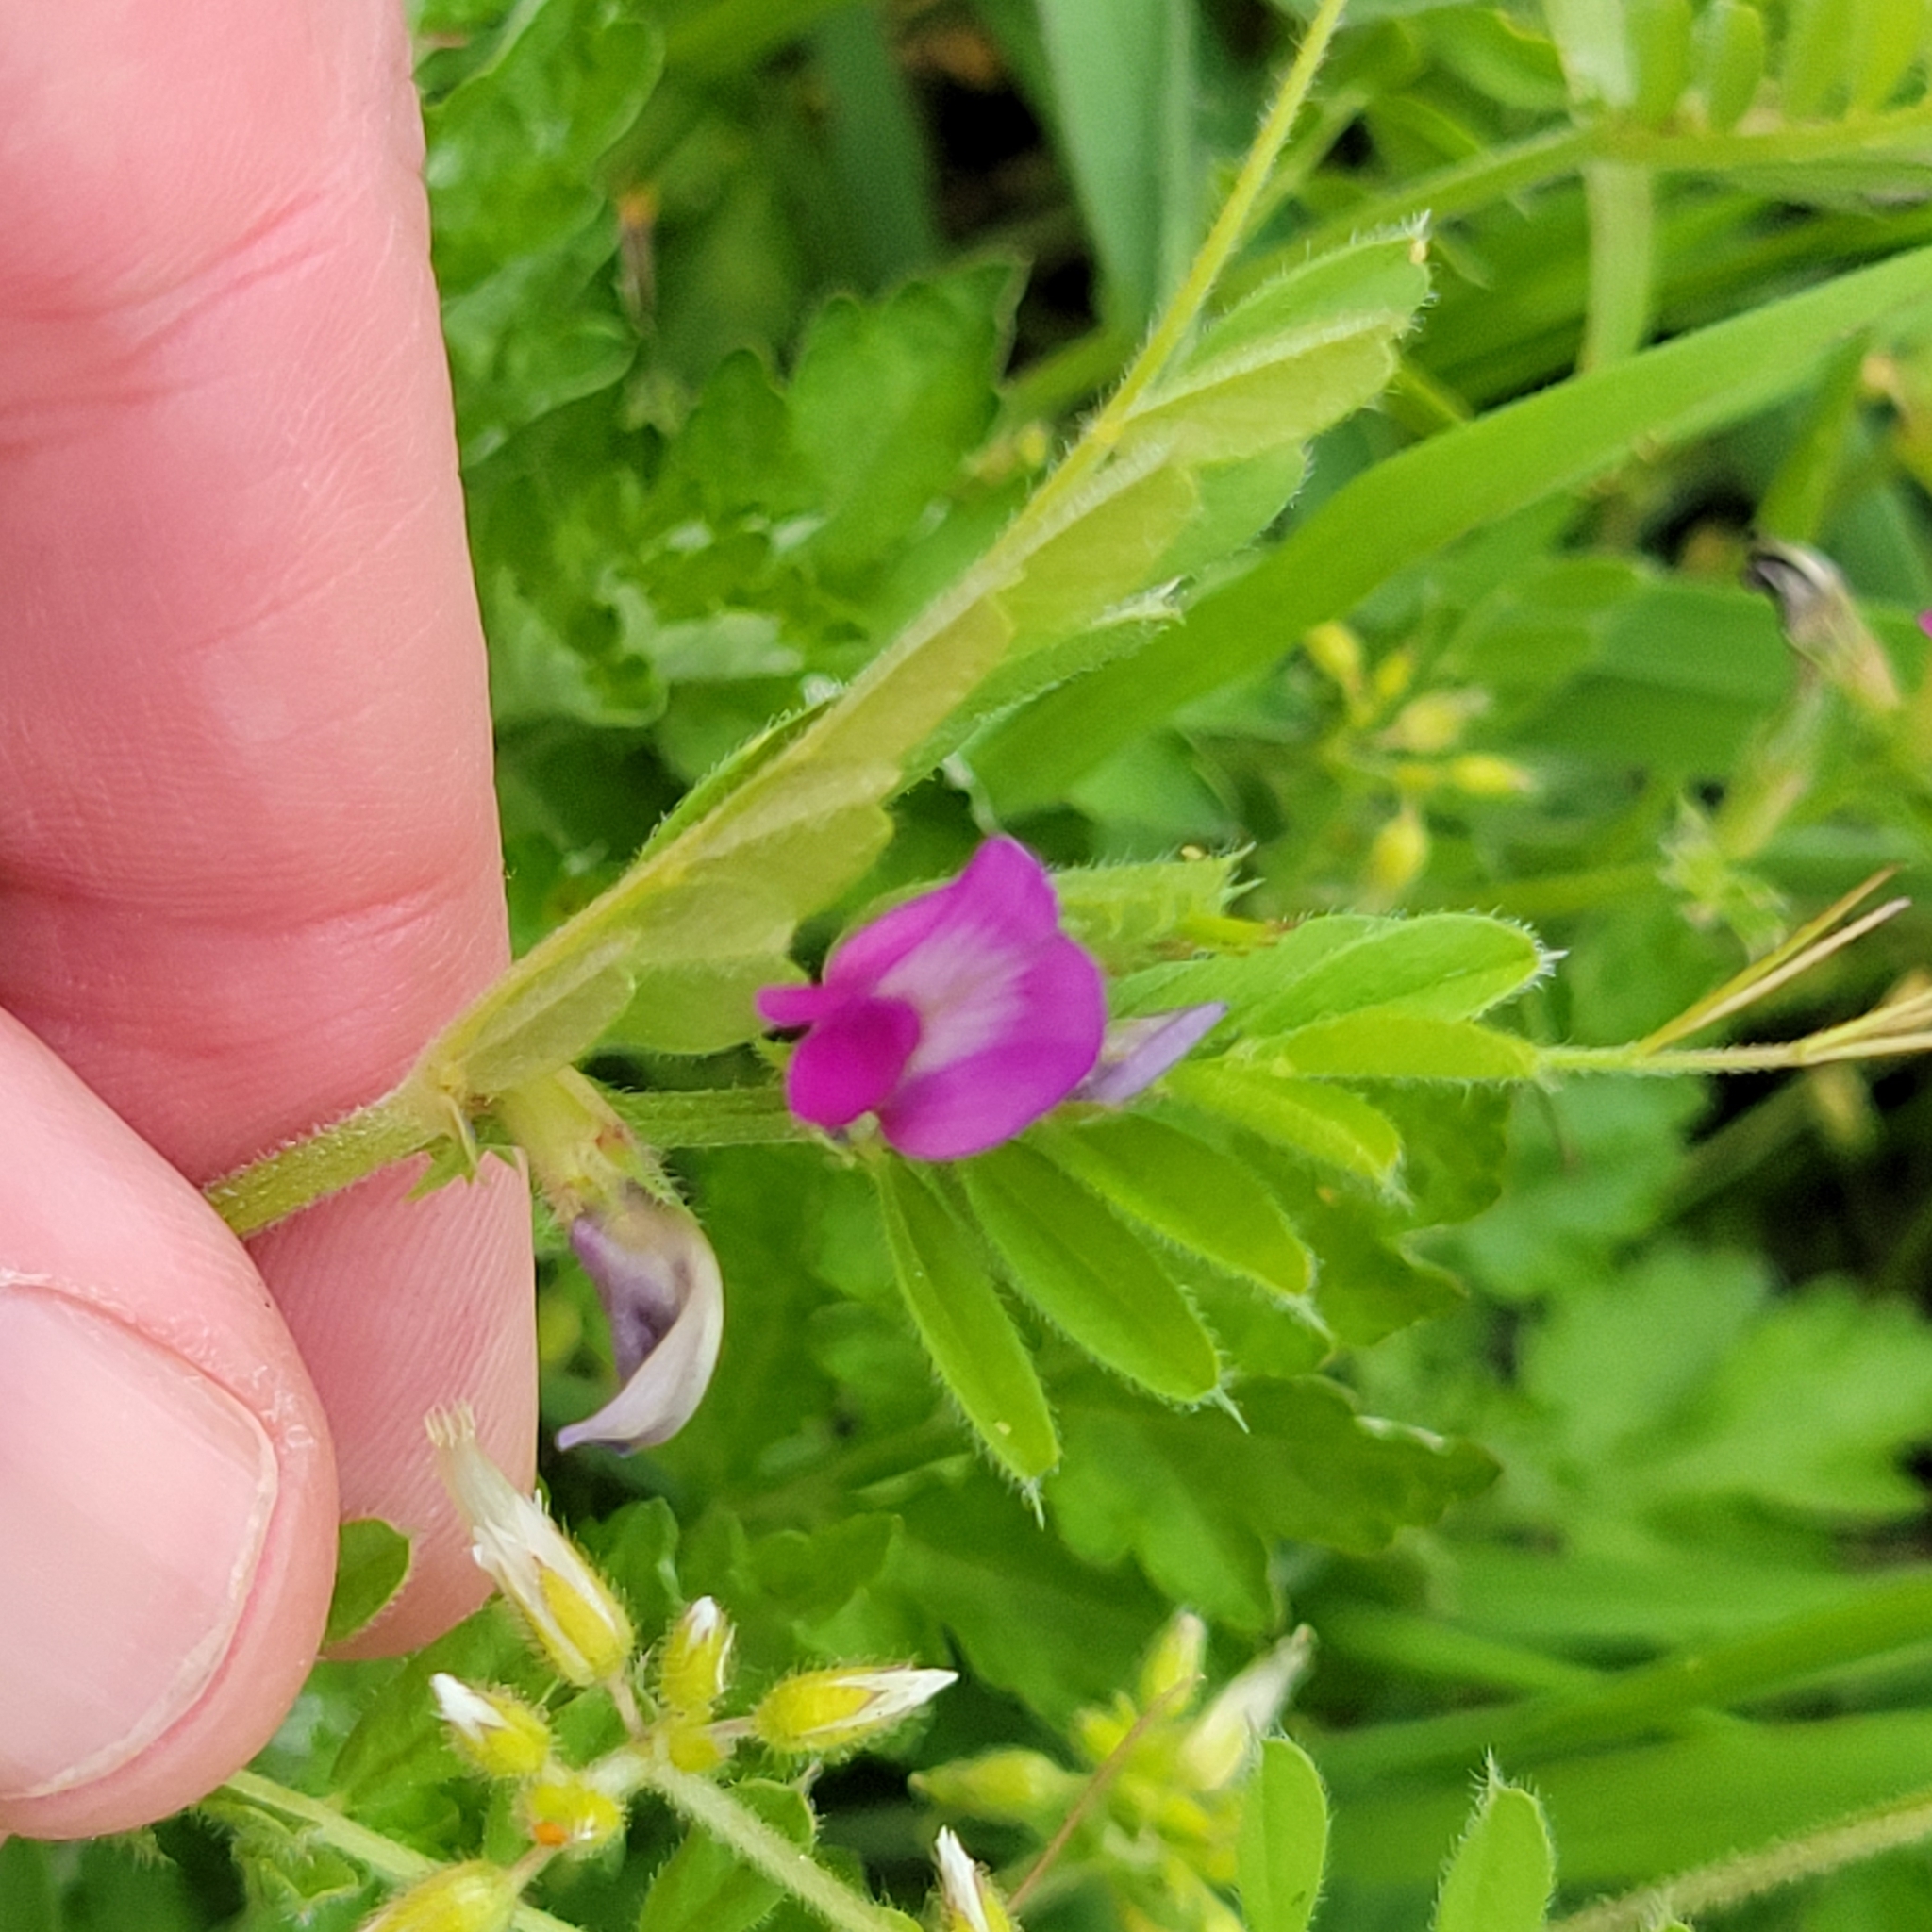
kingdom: Plantae
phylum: Tracheophyta
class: Magnoliopsida
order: Fabales
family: Fabaceae
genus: Vicia
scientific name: Vicia sativa
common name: Garden vetch
